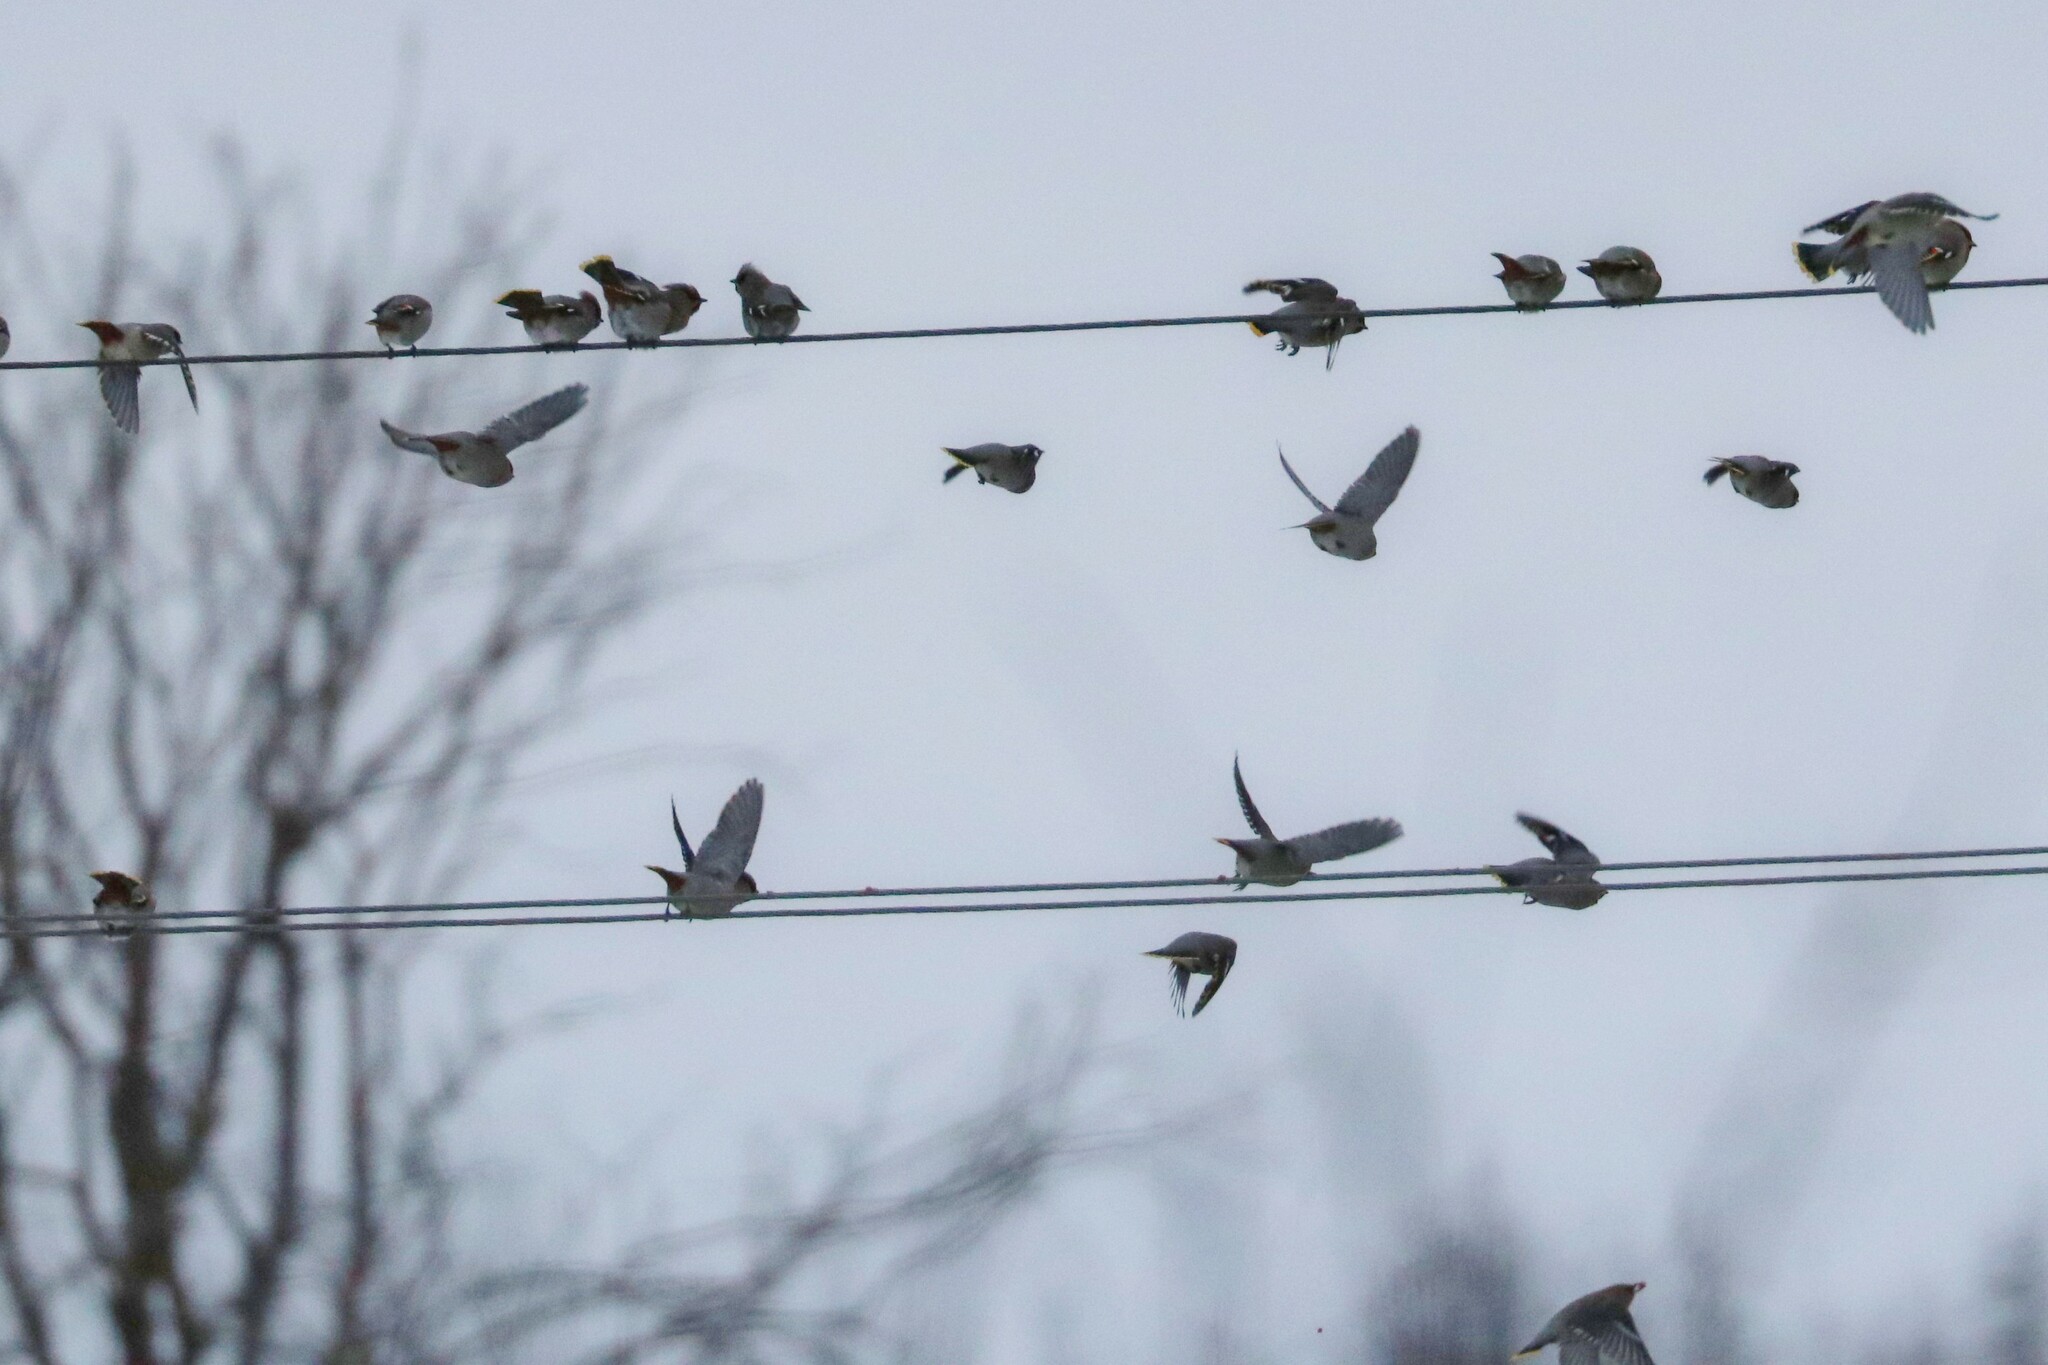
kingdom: Animalia
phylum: Chordata
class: Aves
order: Passeriformes
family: Bombycillidae
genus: Bombycilla
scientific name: Bombycilla garrulus
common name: Bohemian waxwing
